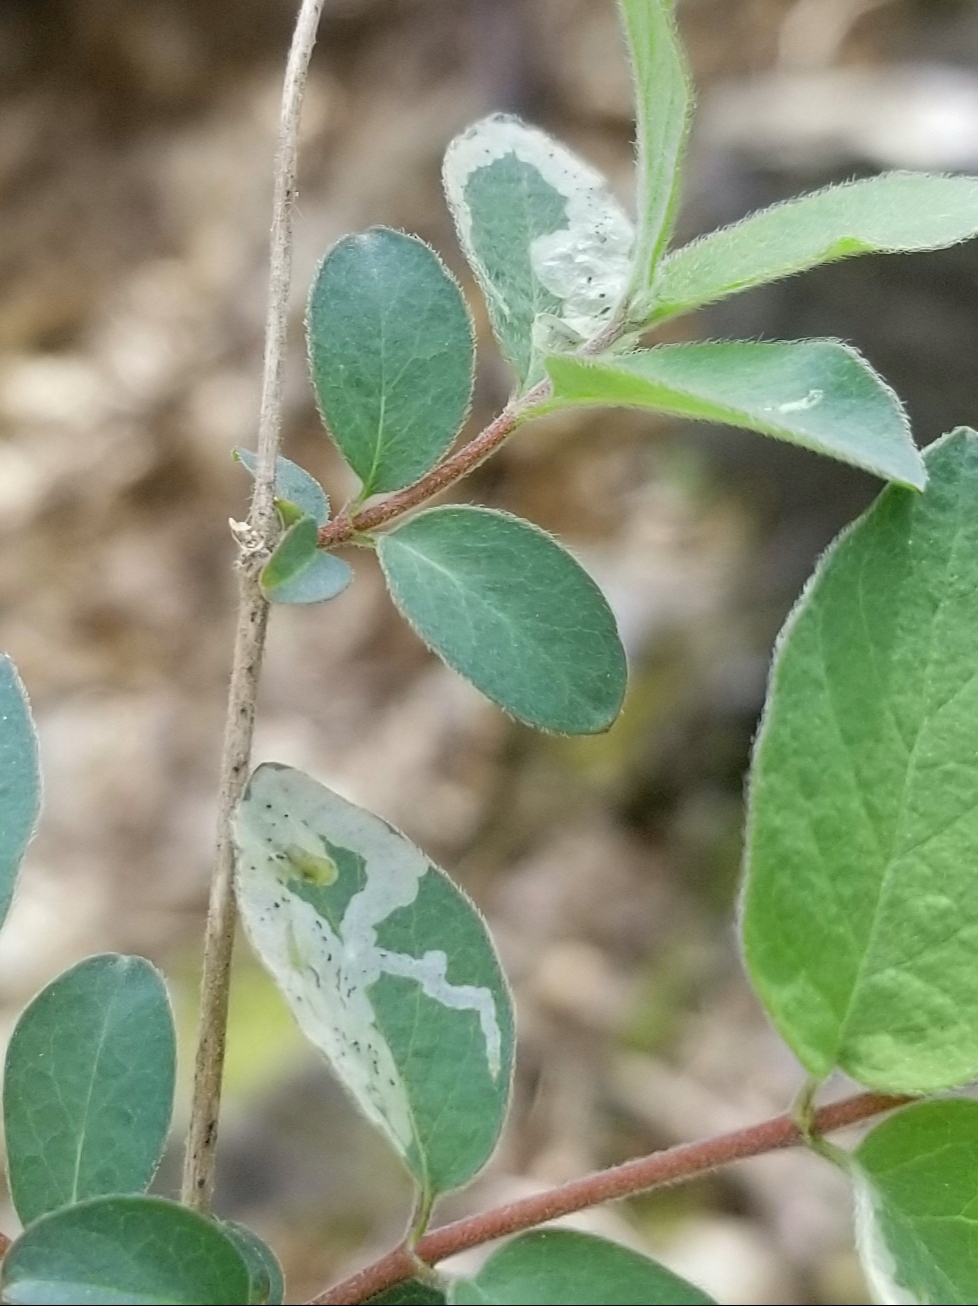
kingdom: Animalia
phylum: Arthropoda
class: Insecta
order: Diptera
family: Agromyzidae
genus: Aulagromyza
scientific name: Aulagromyza cornigera
